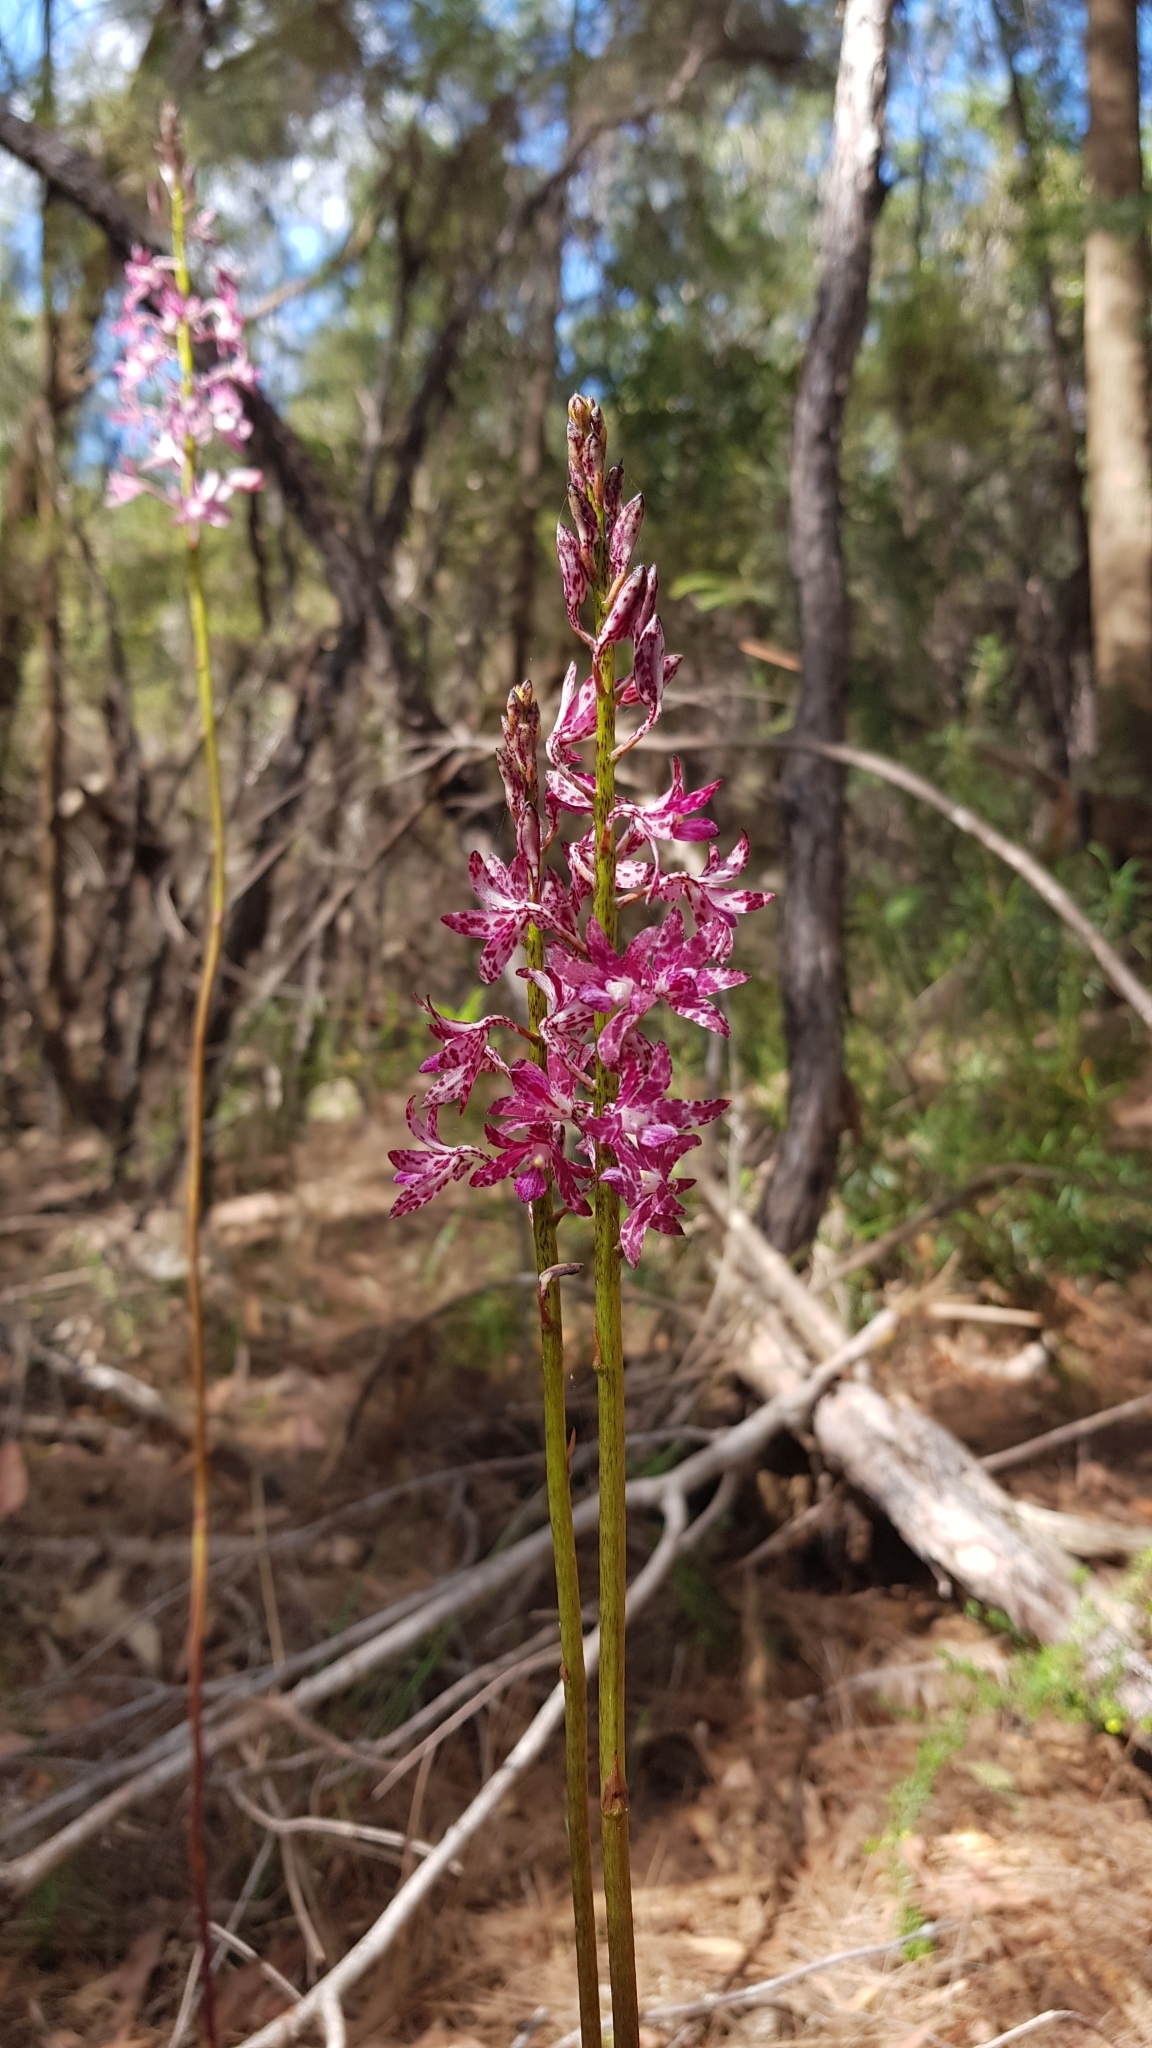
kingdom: Plantae
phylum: Tracheophyta
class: Liliopsida
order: Asparagales
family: Orchidaceae
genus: Dipodium
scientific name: Dipodium variegatum
